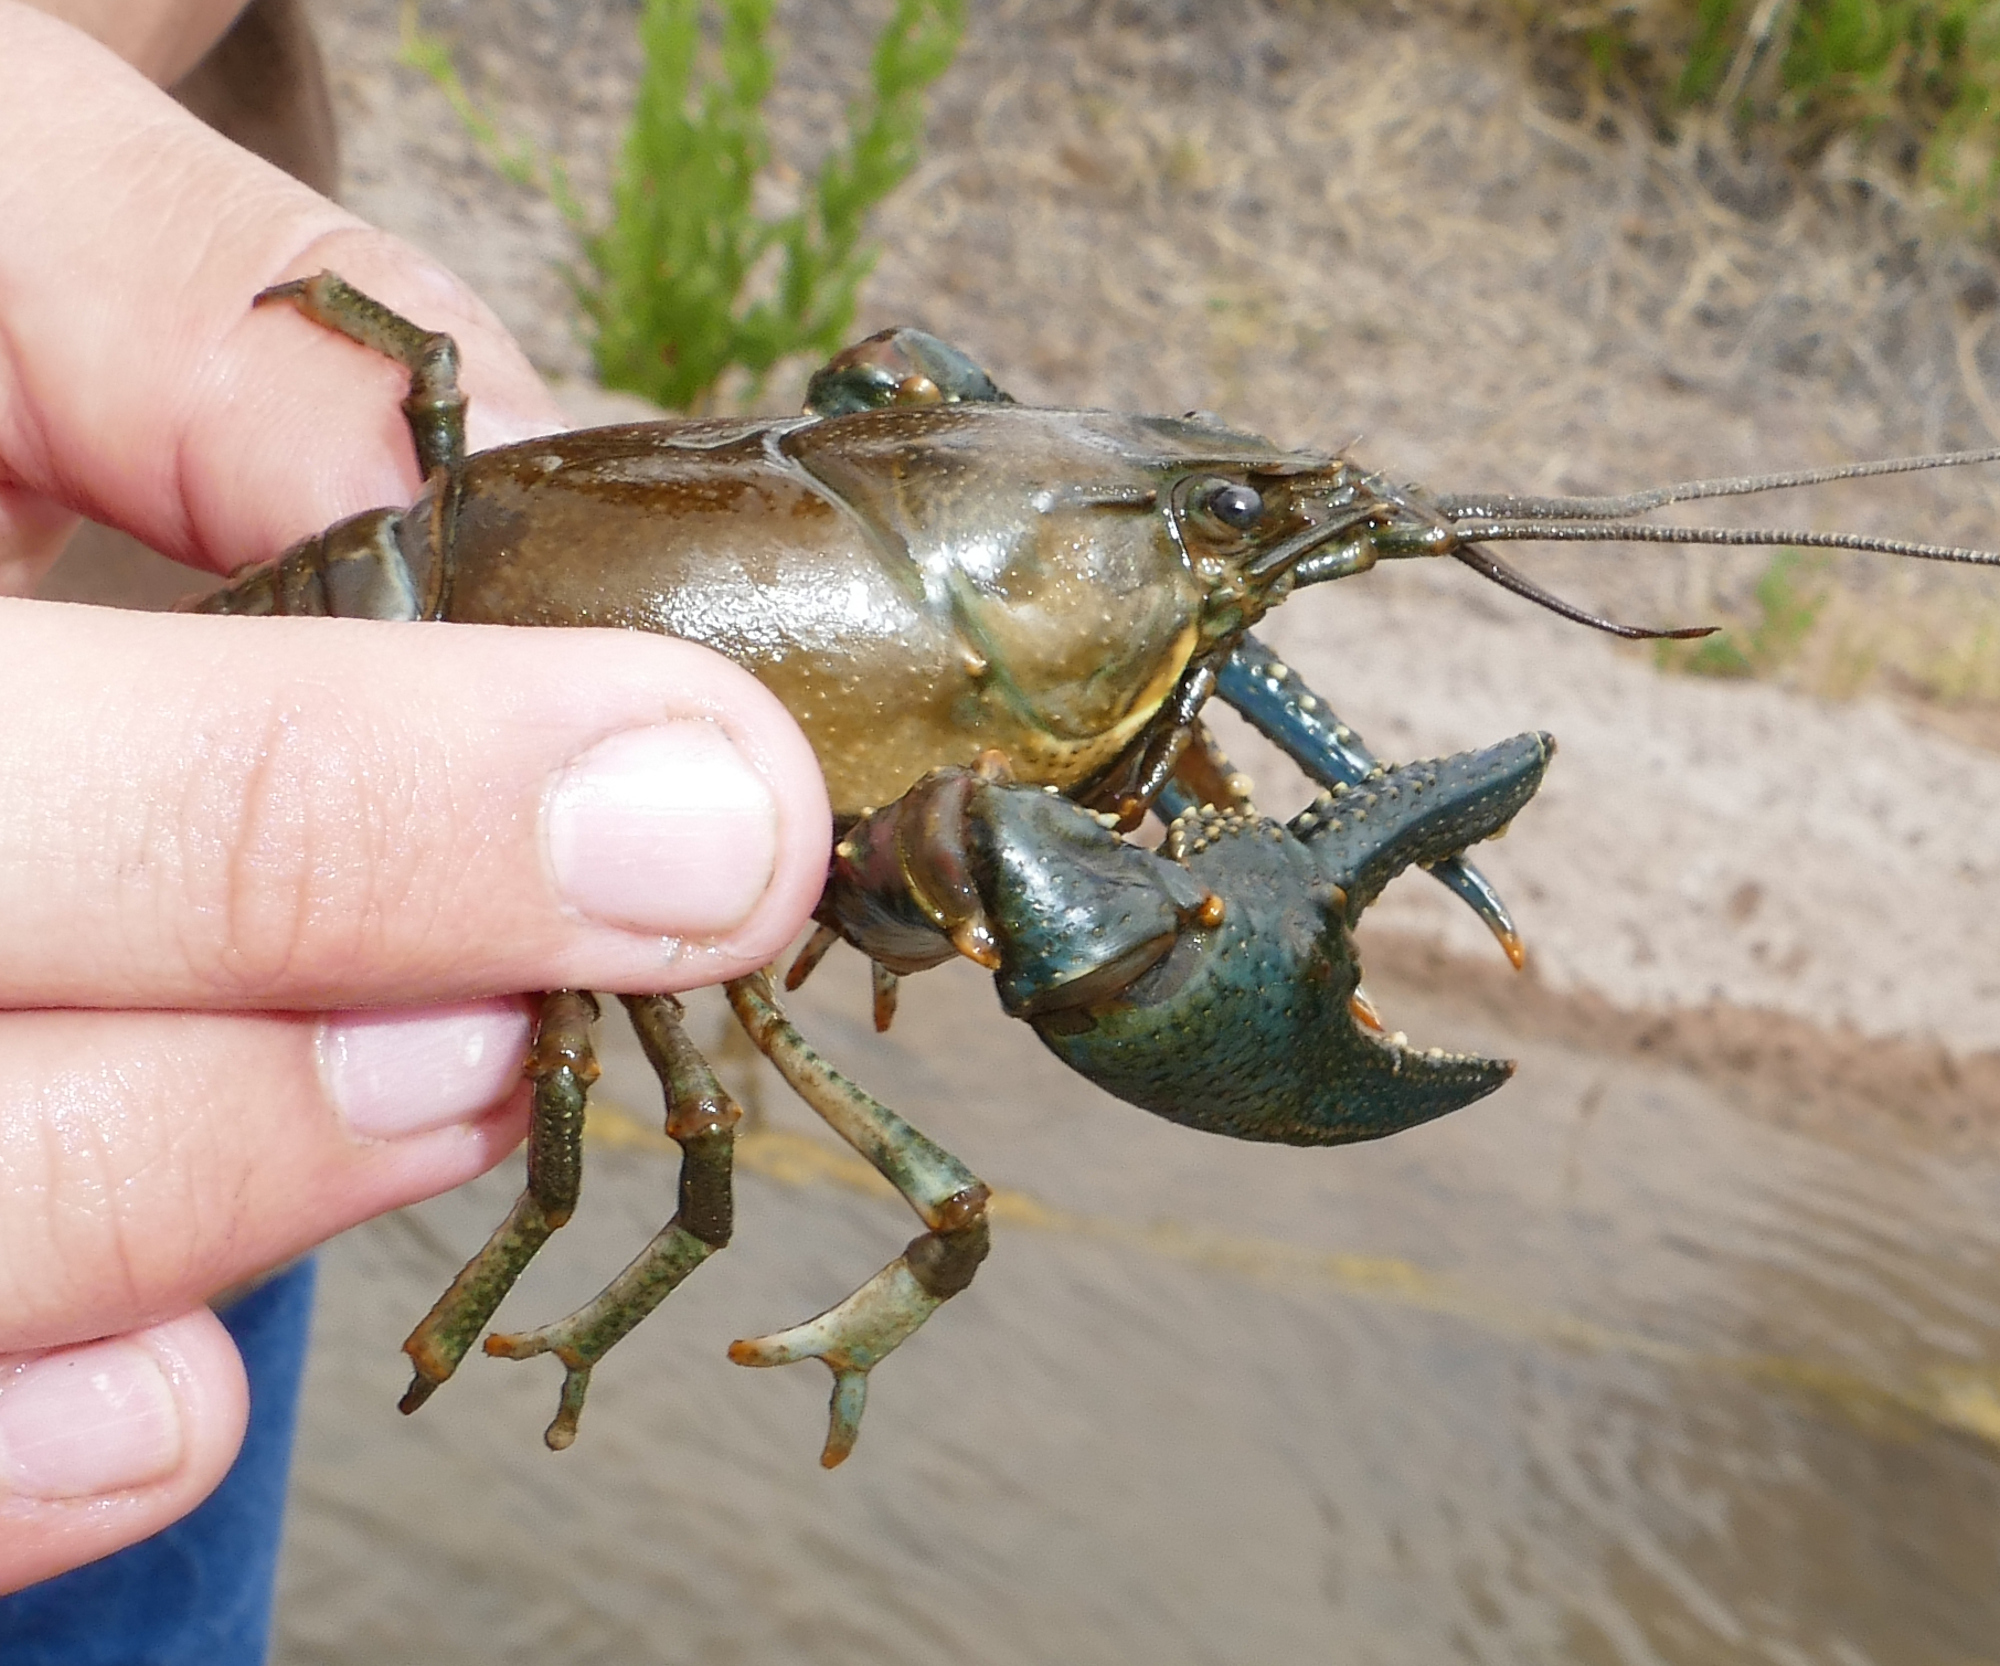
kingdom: Animalia
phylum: Arthropoda
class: Malacostraca
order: Decapoda
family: Cambaridae
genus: Faxonius
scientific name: Faxonius virilis
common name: Virile crayfish
